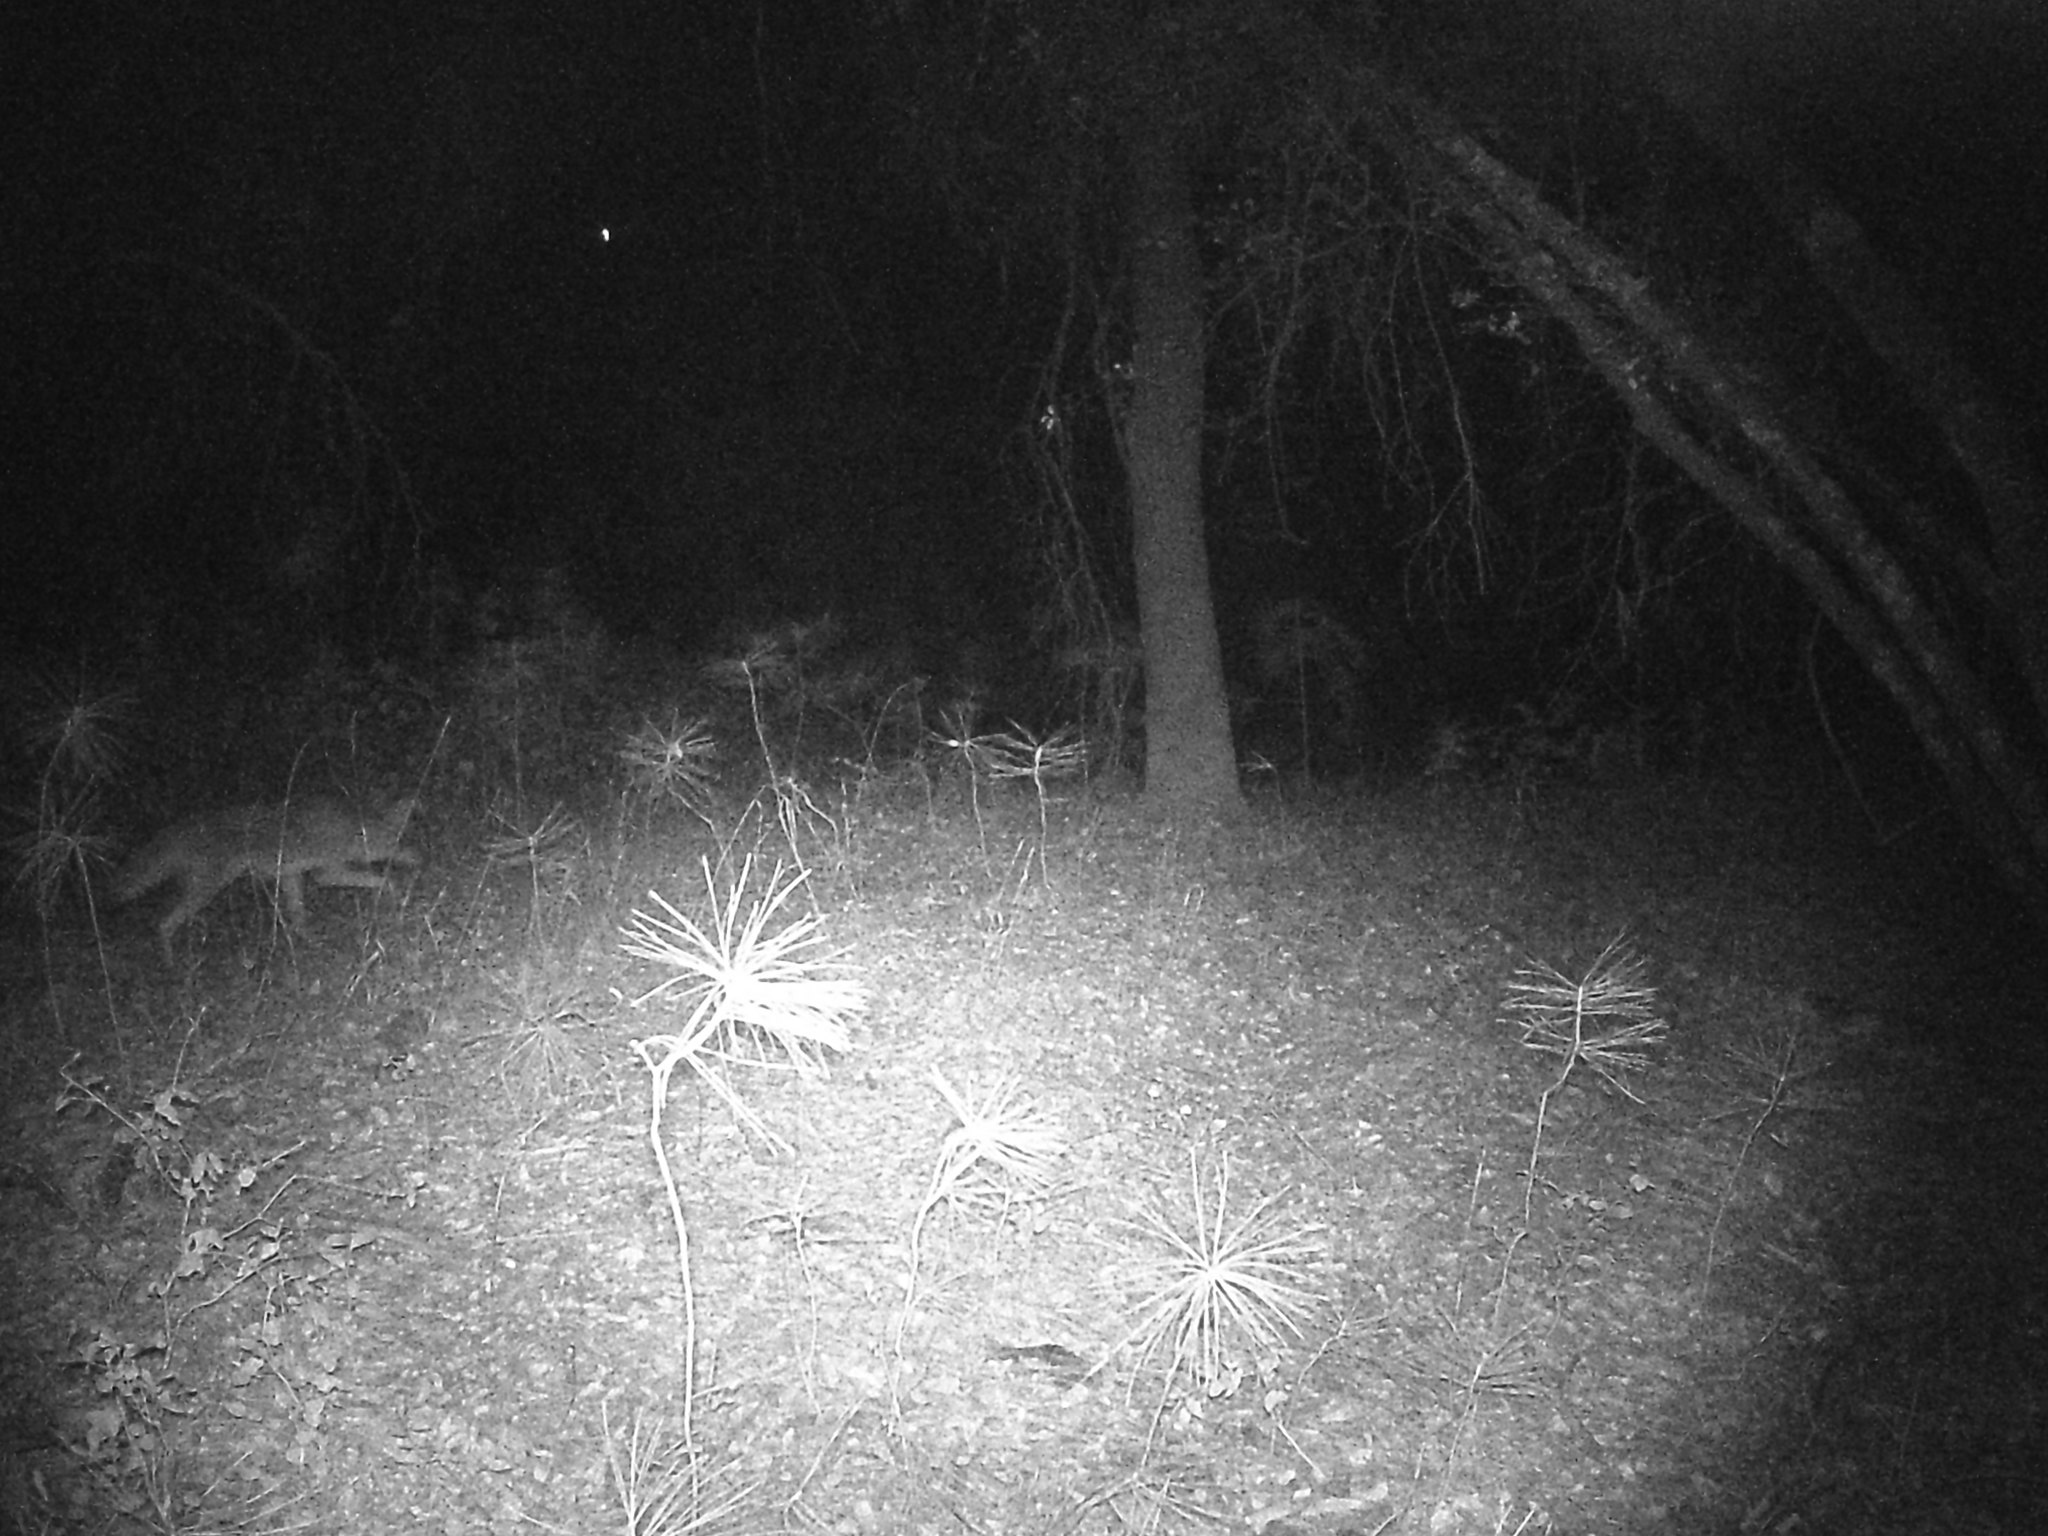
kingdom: Animalia
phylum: Chordata
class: Mammalia
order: Carnivora
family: Canidae
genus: Canis
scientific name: Canis latrans
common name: Coyote
